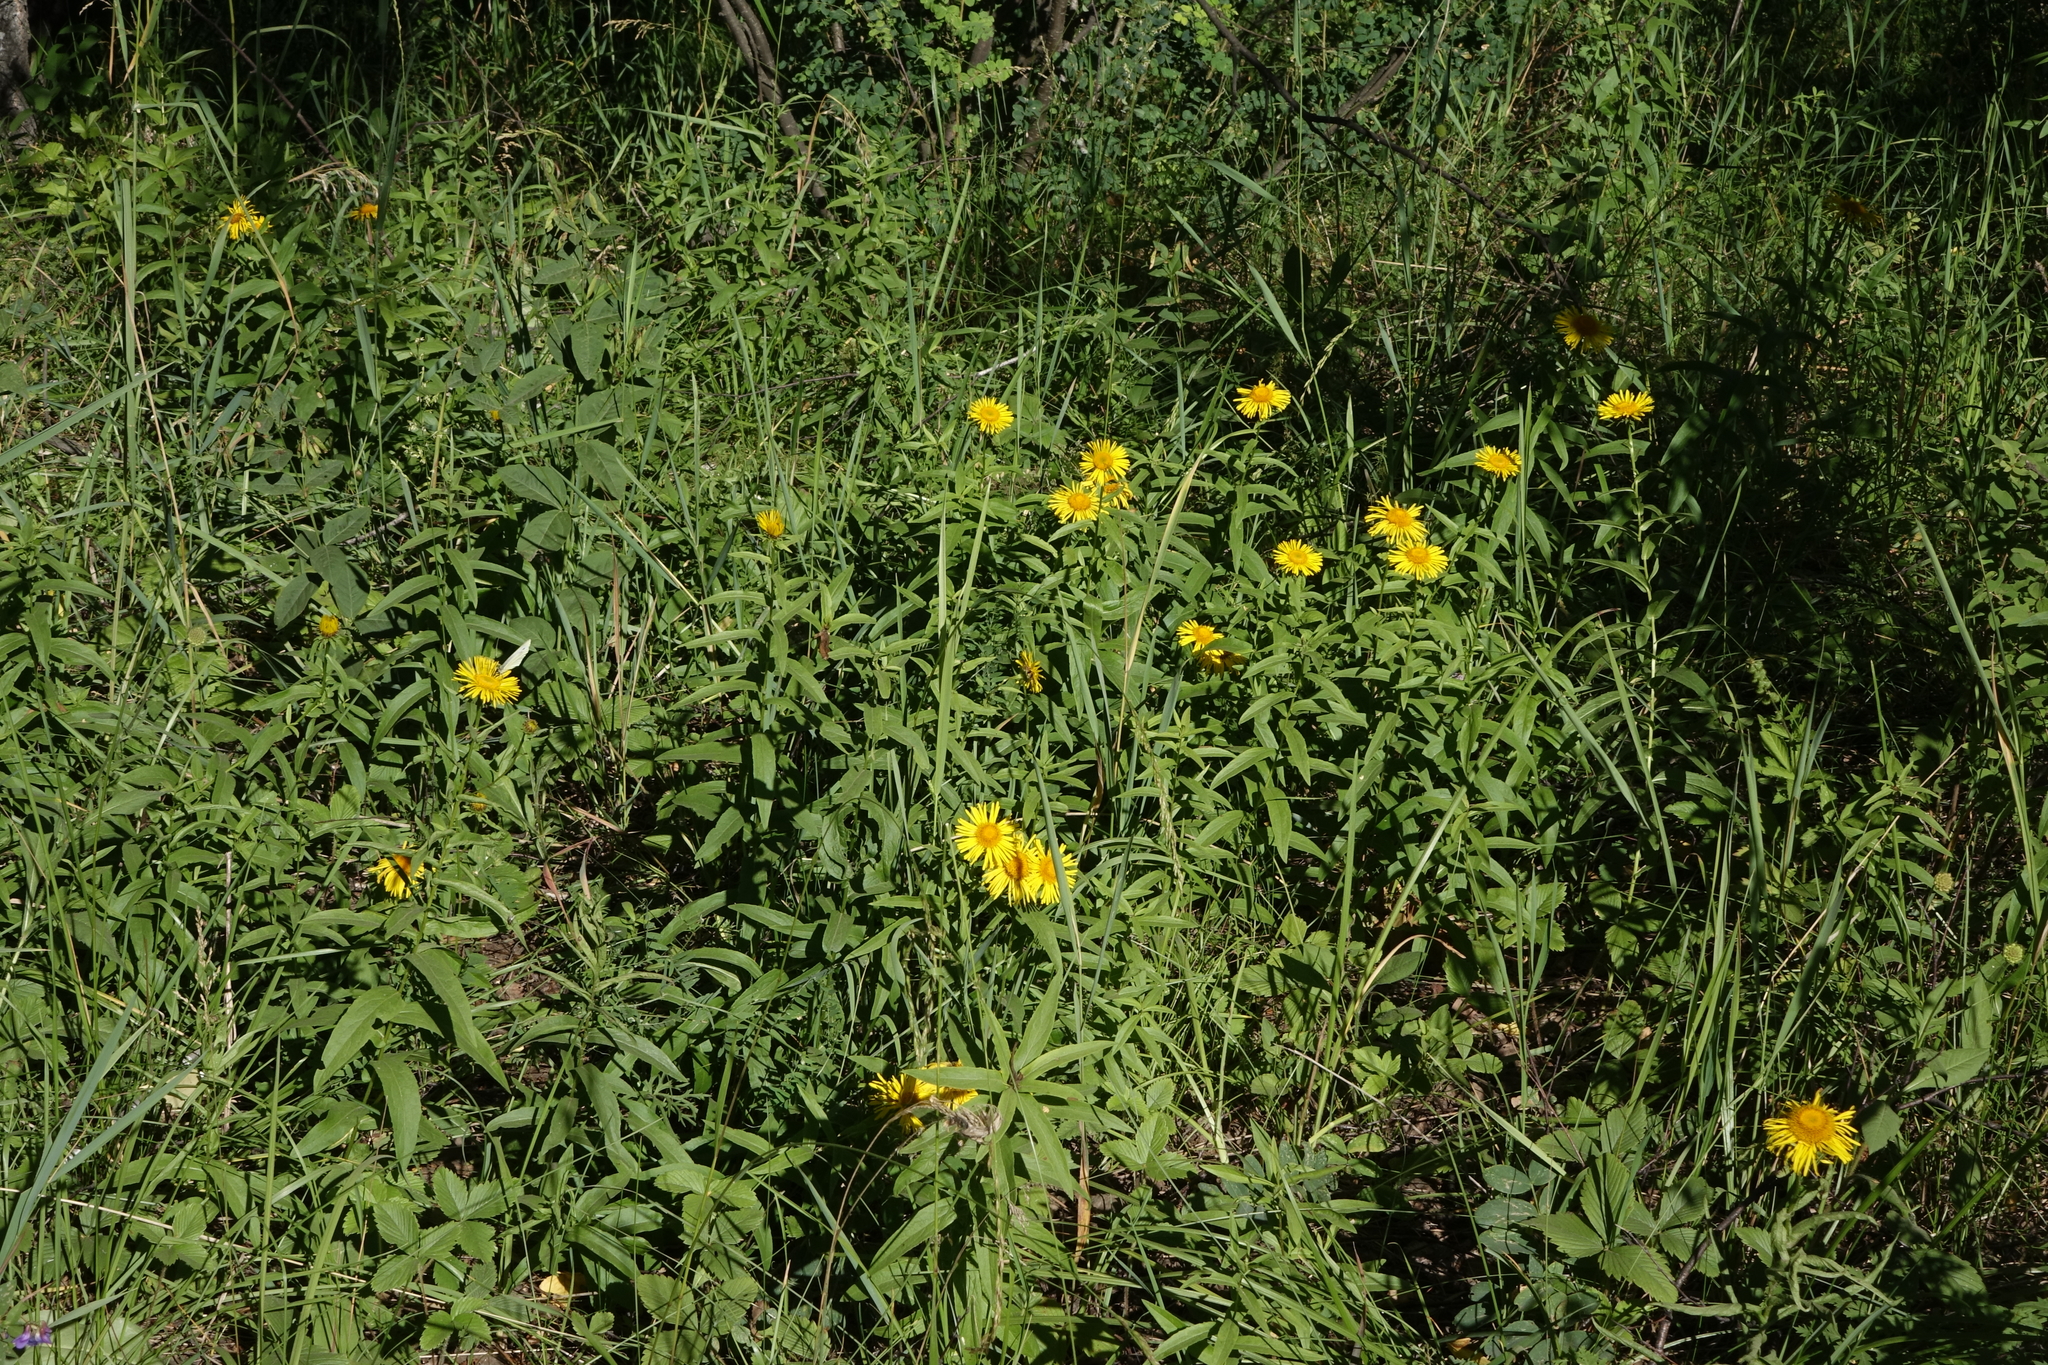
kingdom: Plantae
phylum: Tracheophyta
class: Magnoliopsida
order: Asterales
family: Asteraceae
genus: Pentanema
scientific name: Pentanema salicinum
